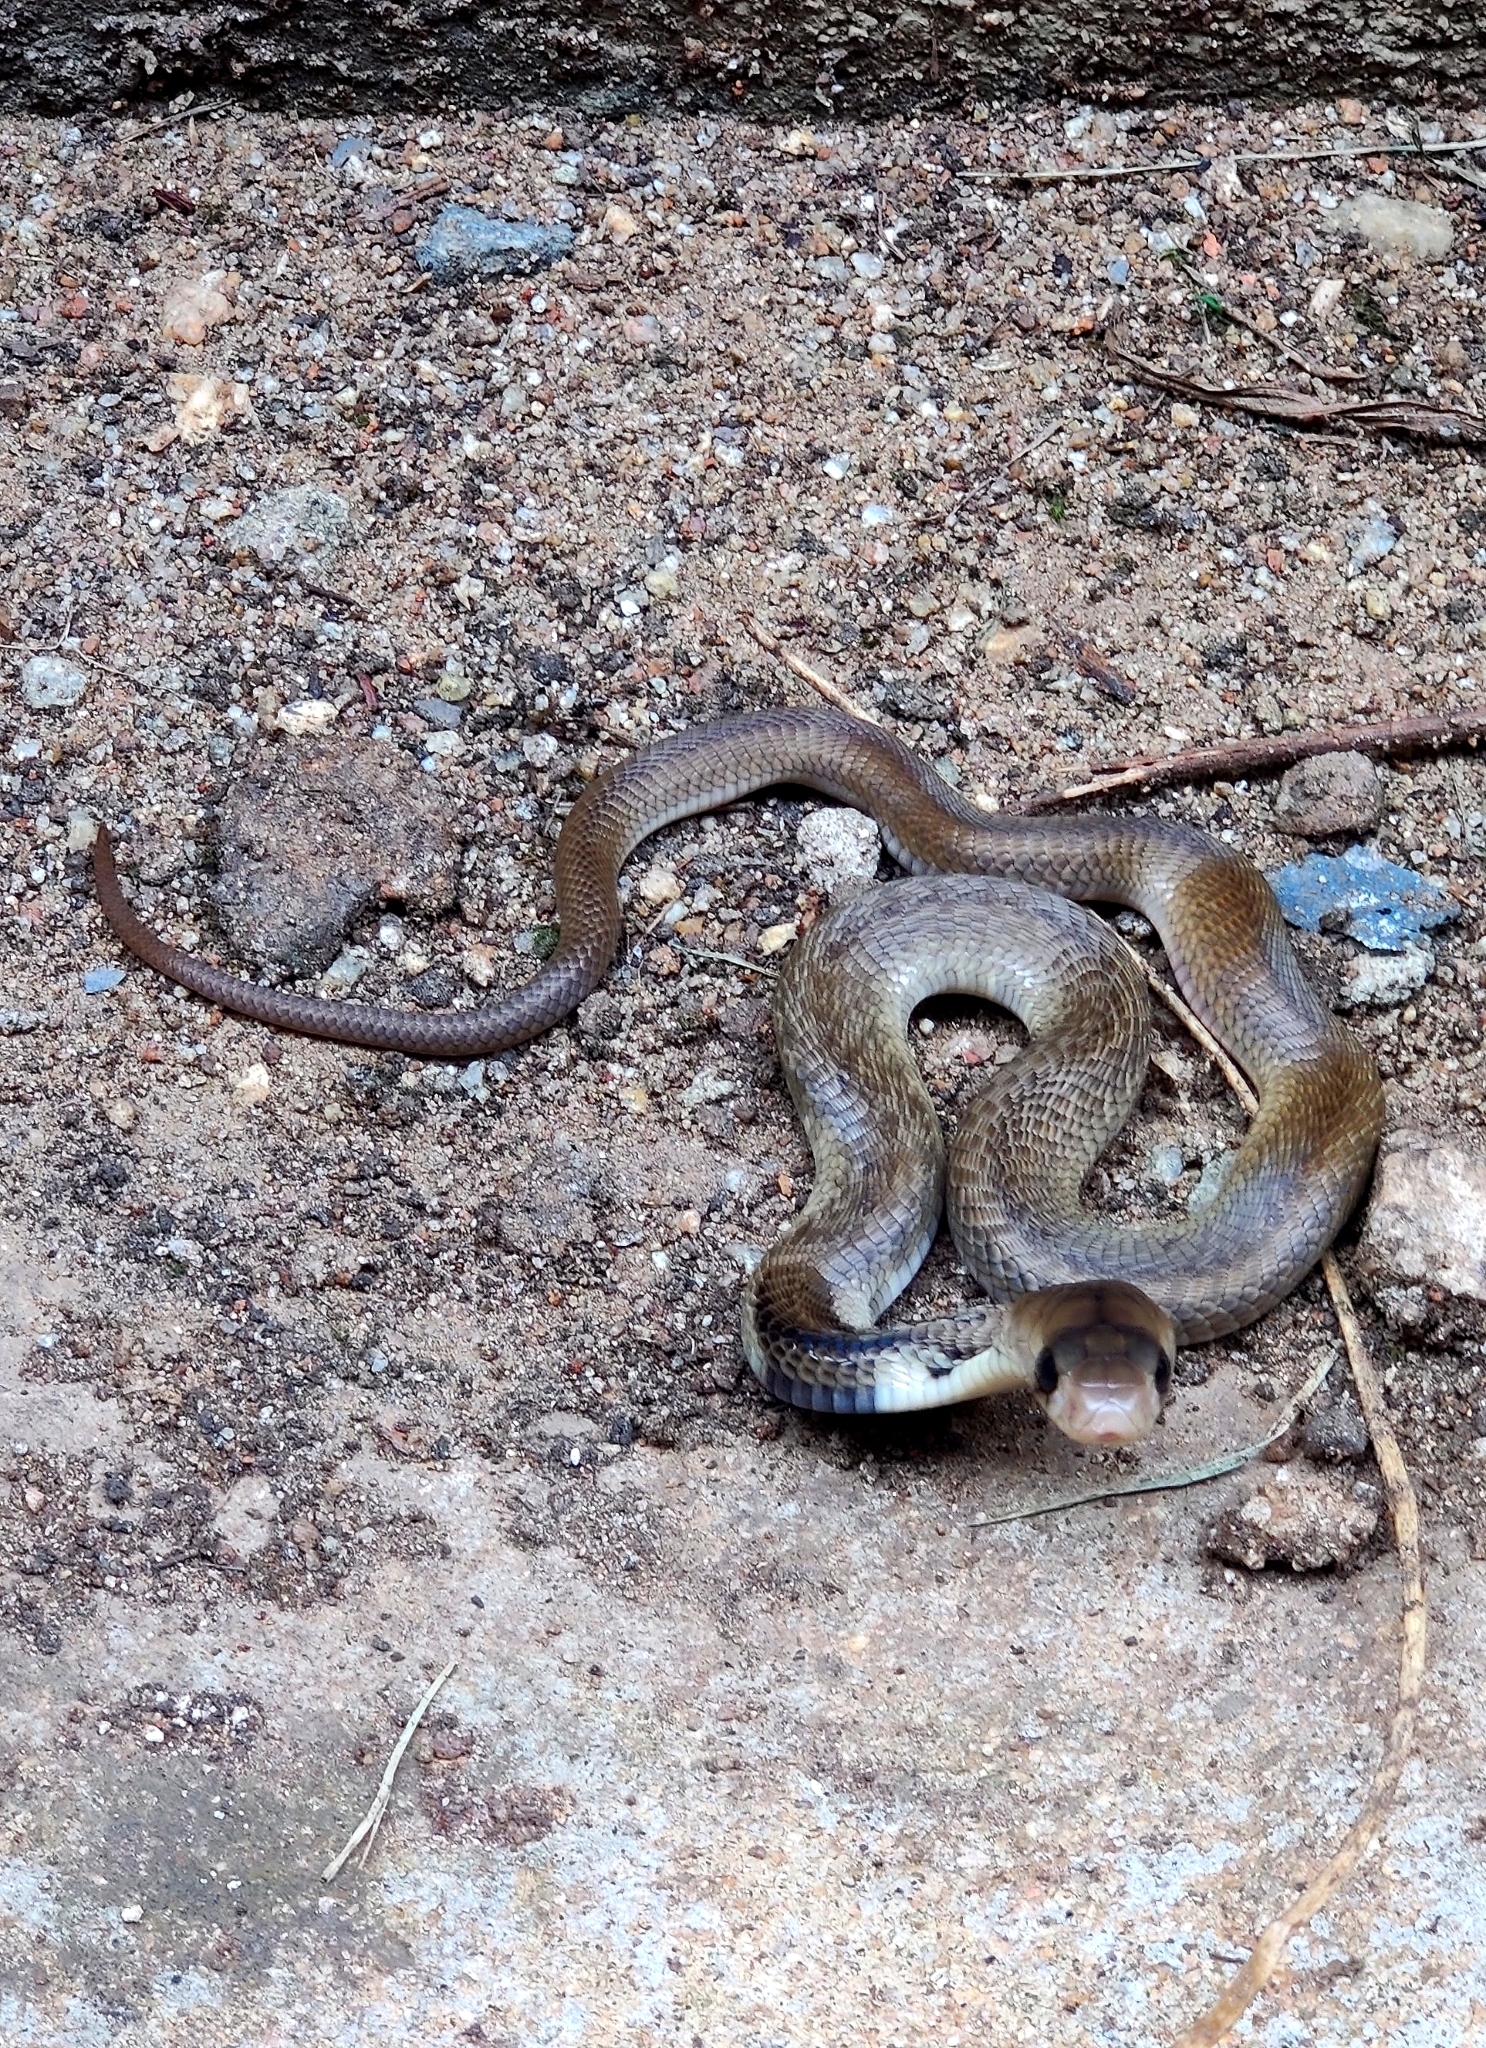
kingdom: Animalia
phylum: Chordata
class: Squamata
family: Elapidae
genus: Naja
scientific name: Naja naja
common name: Indian cobra
